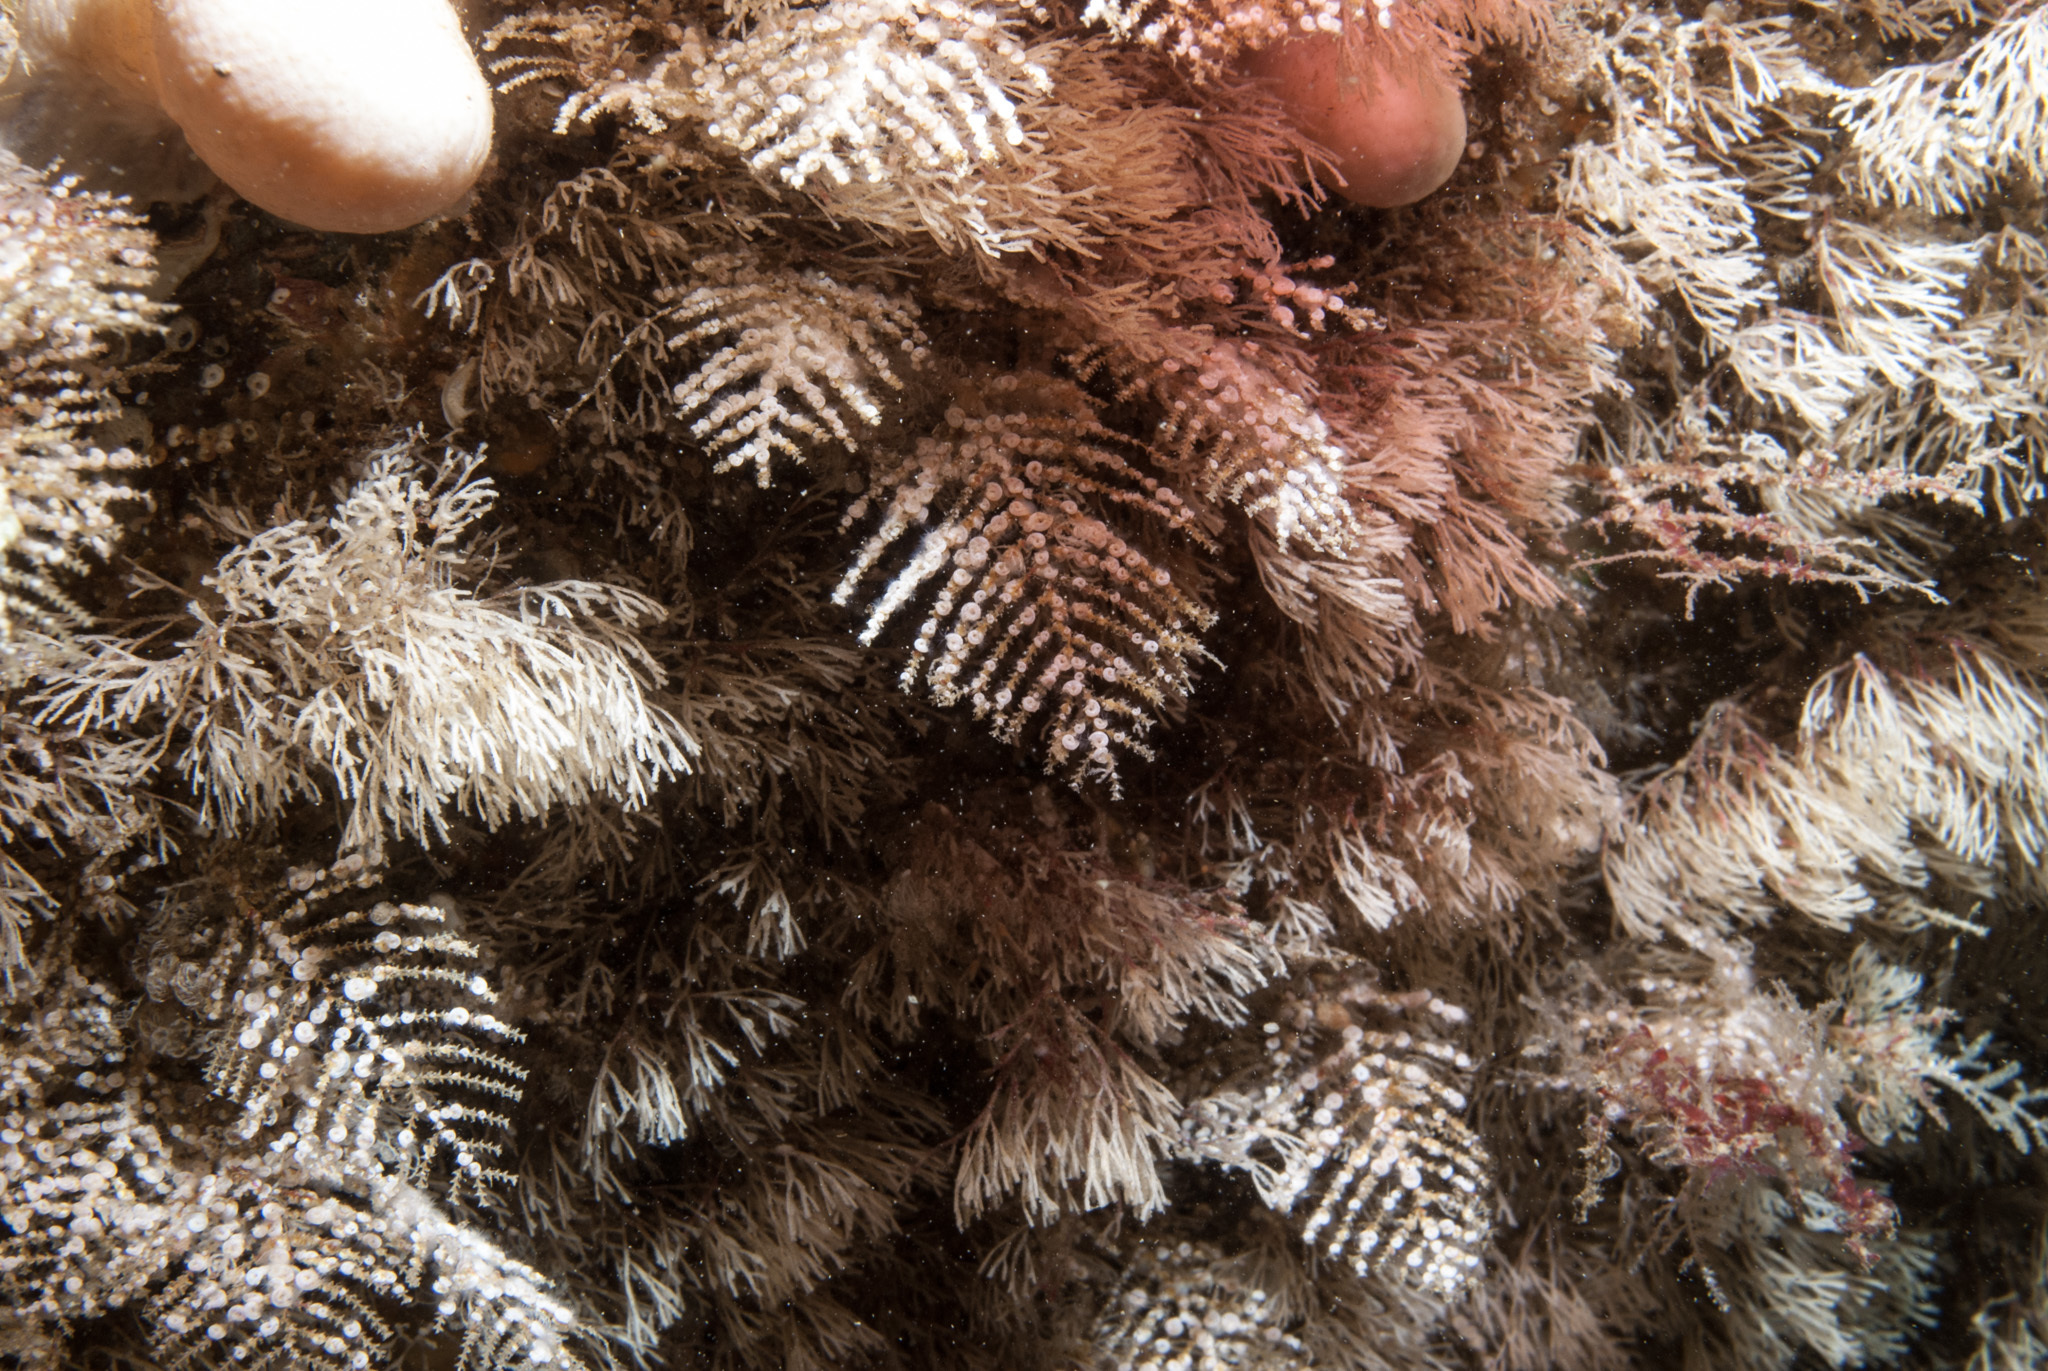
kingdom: Animalia
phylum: Cnidaria
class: Hydrozoa
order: Leptothecata
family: Sertulariidae
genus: Abietinaria
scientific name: Abietinaria filicula
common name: Fern hydroid
